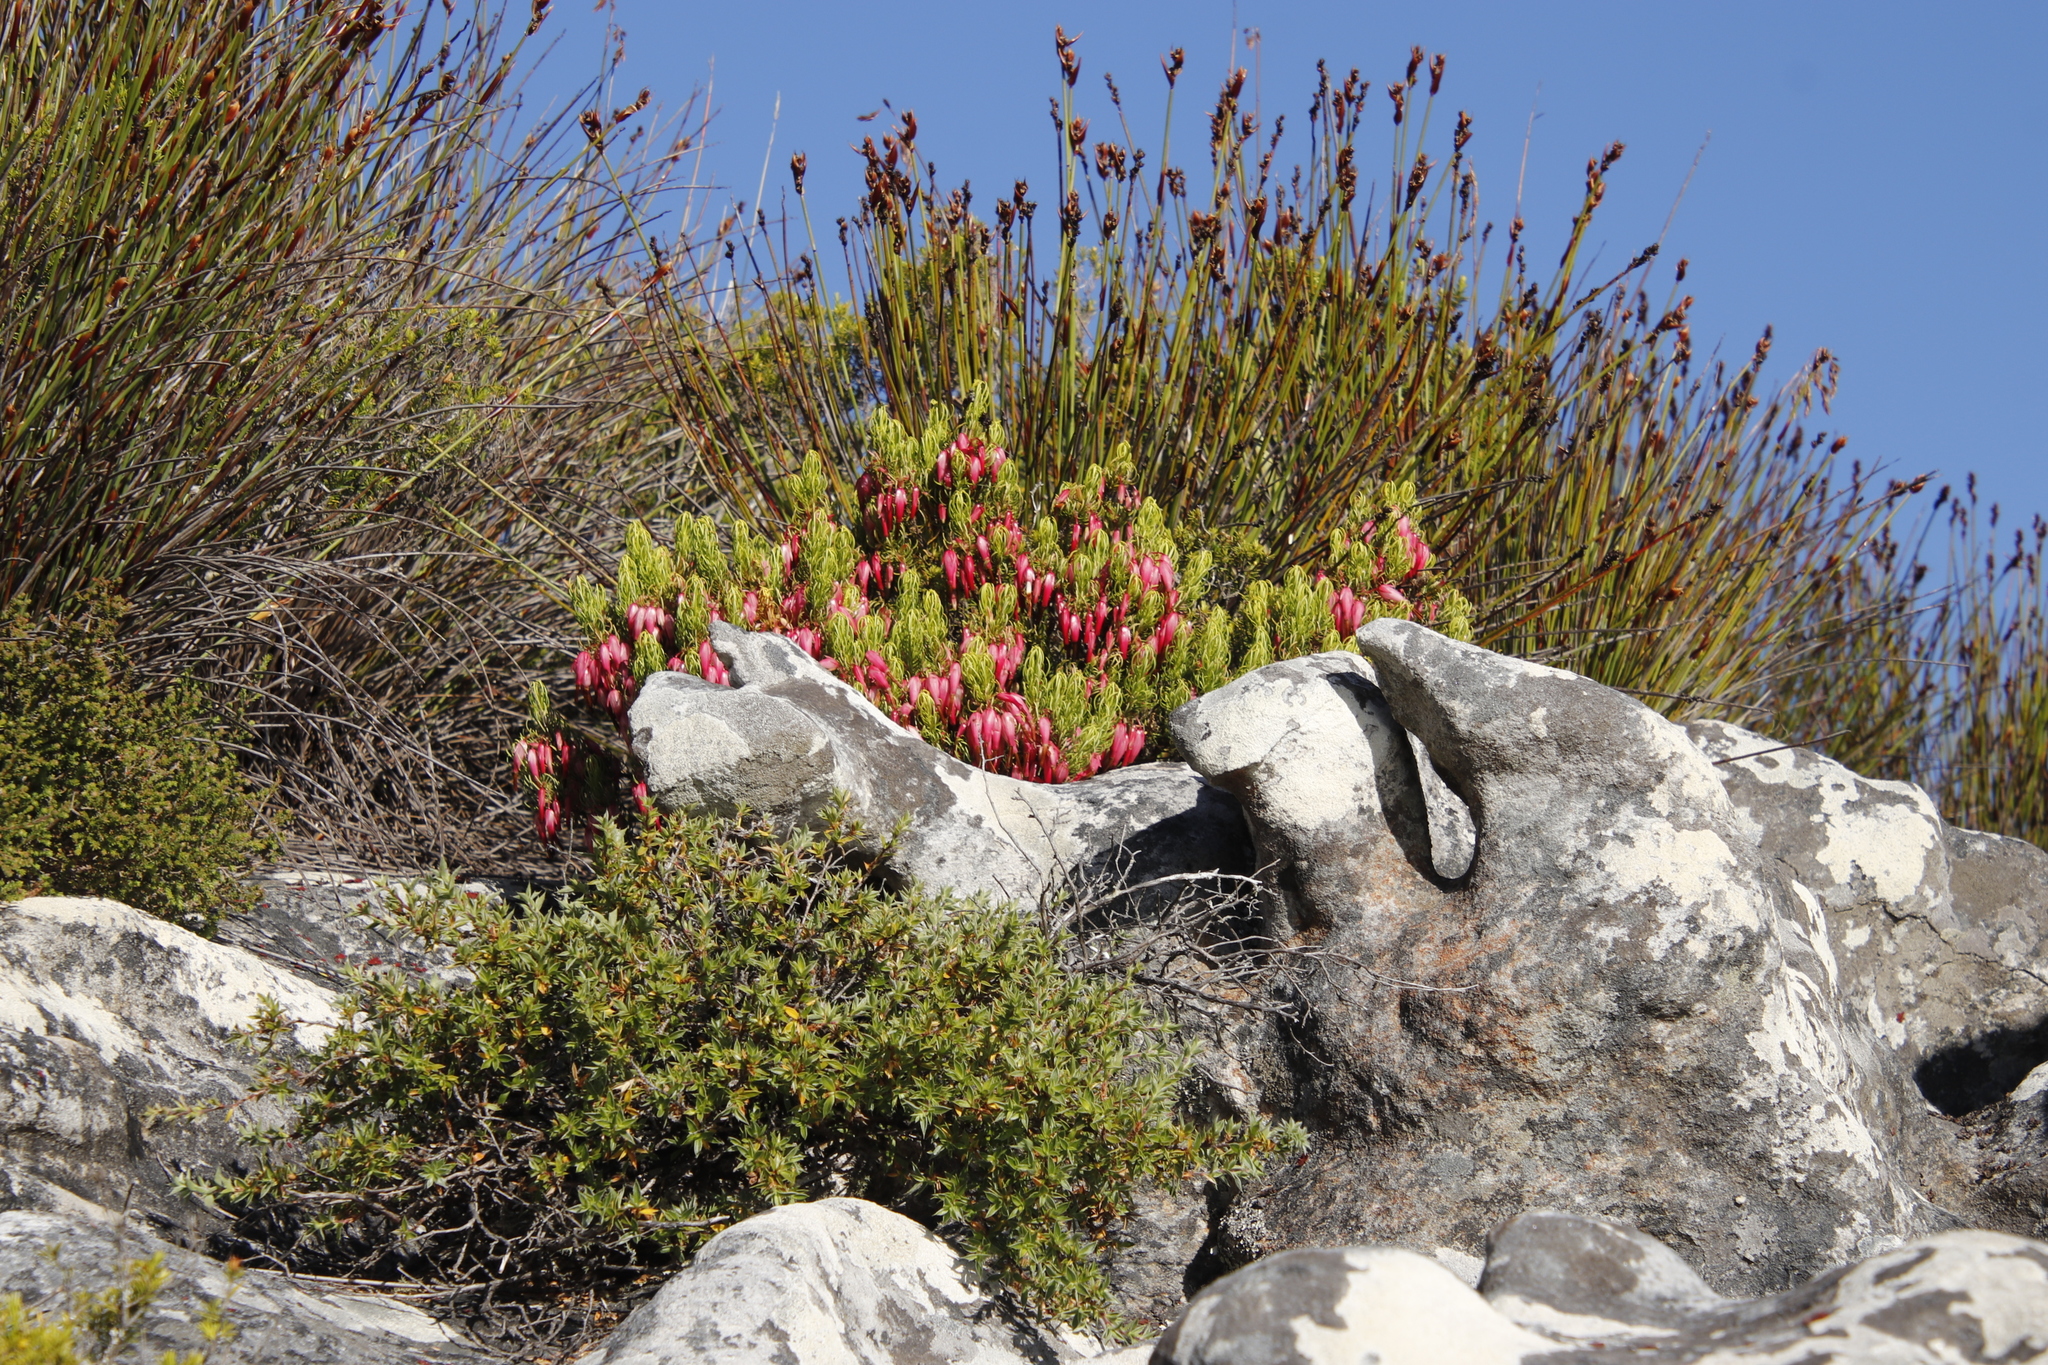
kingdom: Plantae
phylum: Tracheophyta
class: Magnoliopsida
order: Ericales
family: Ericaceae
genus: Erica
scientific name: Erica plukenetii
